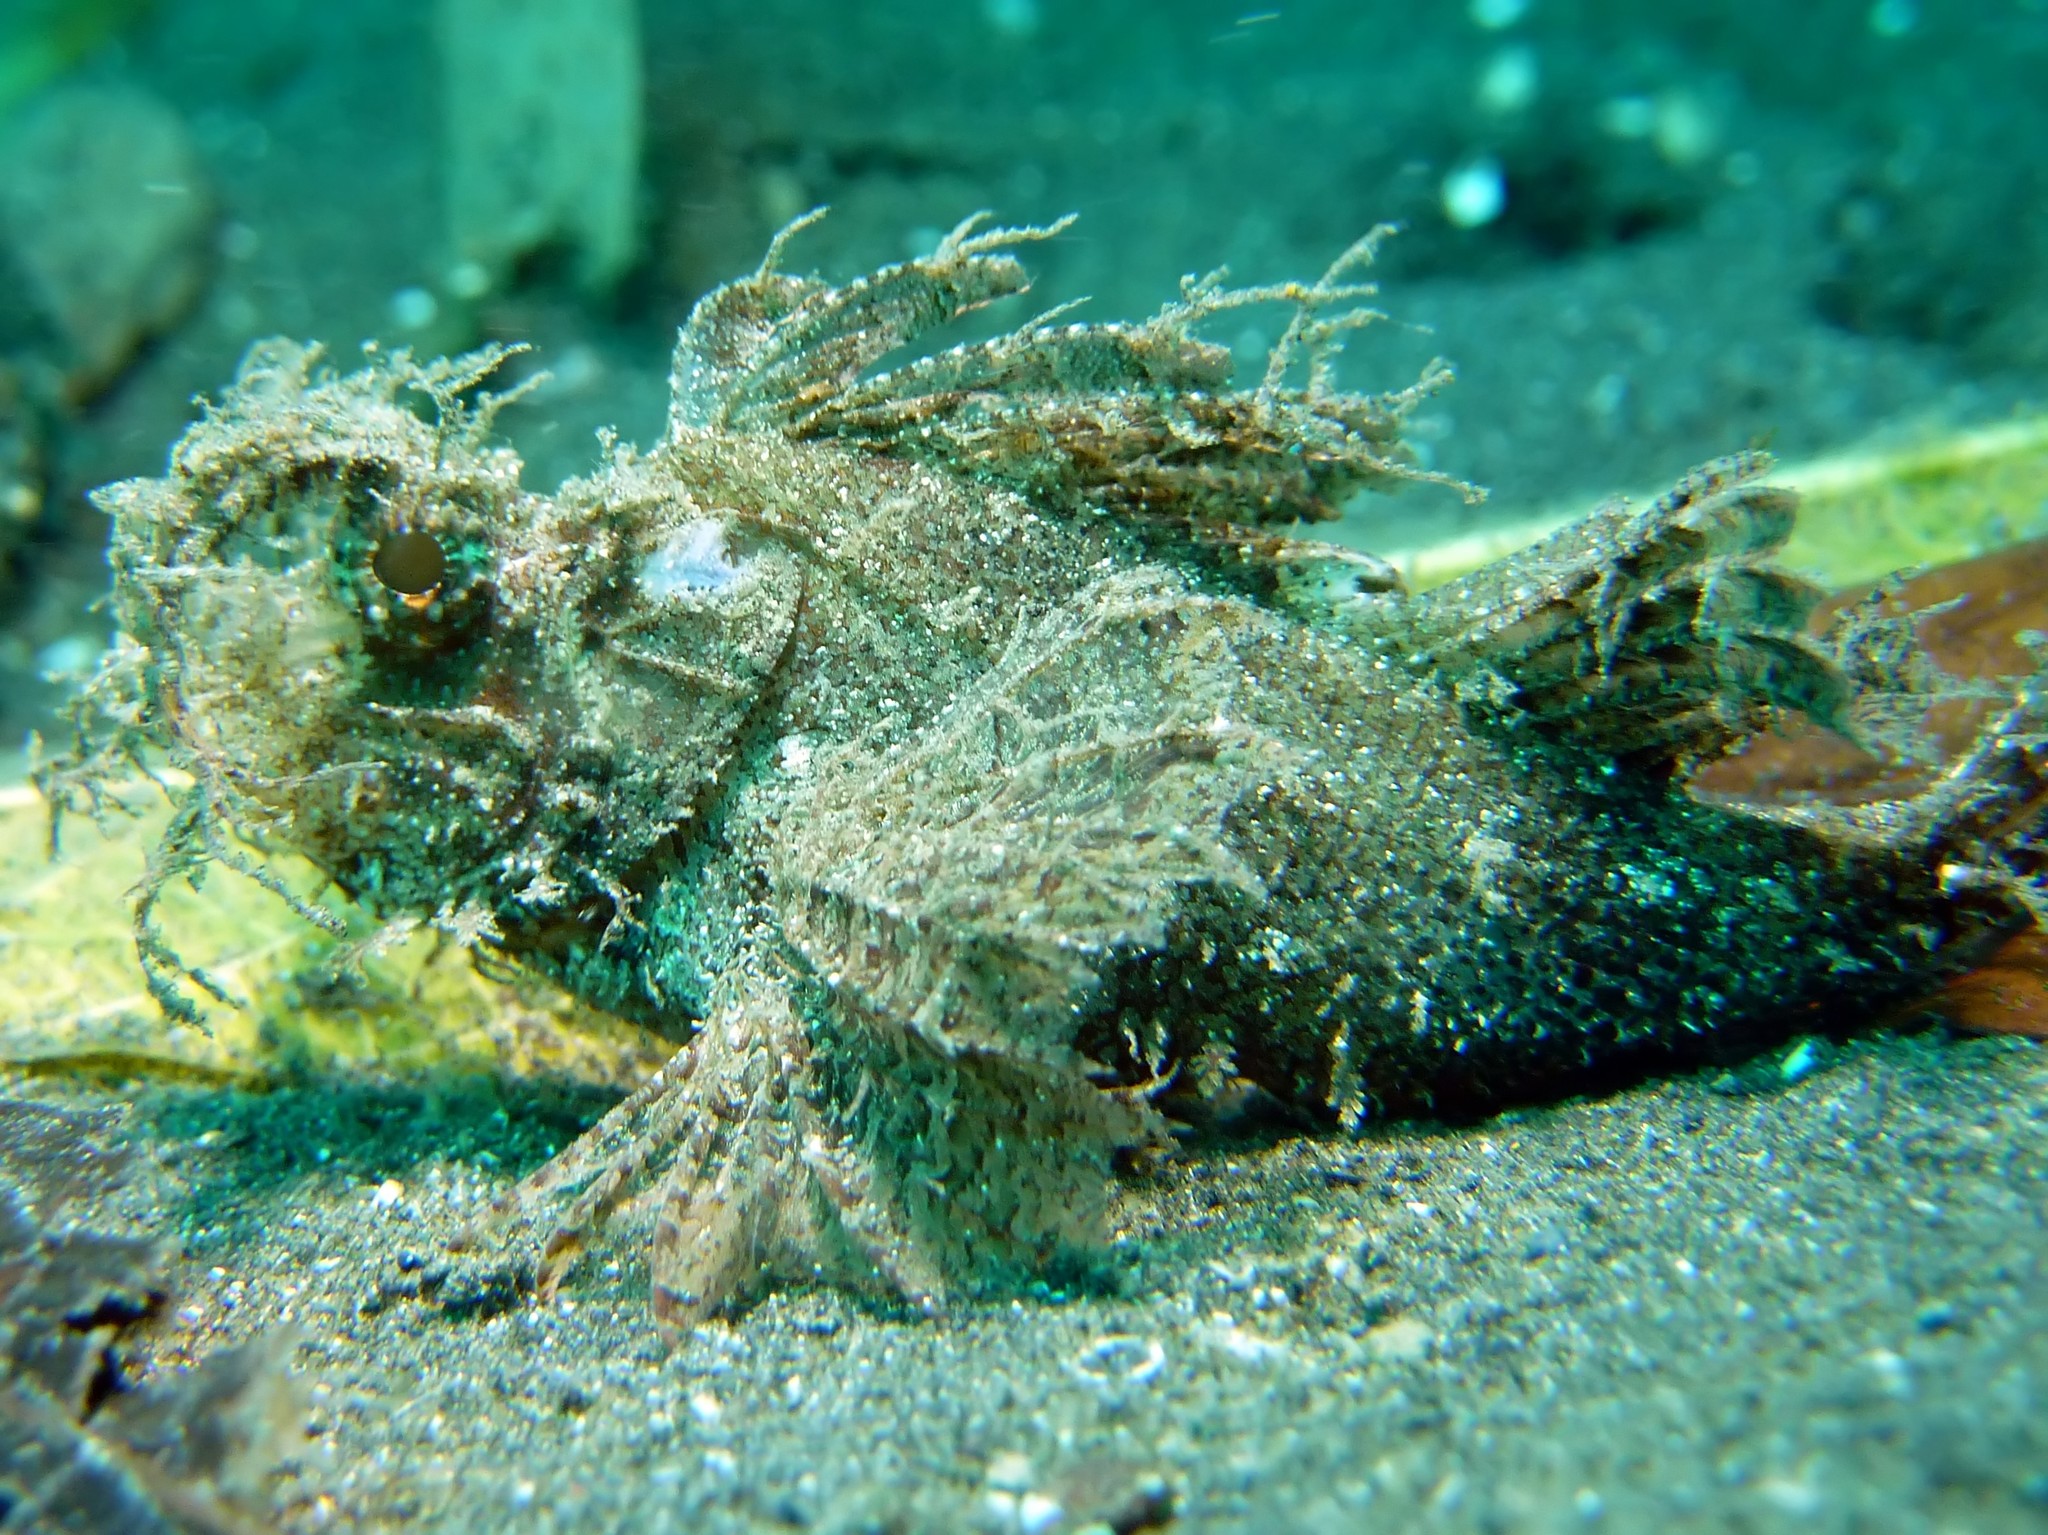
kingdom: Animalia
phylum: Chordata
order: Scorpaeniformes
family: Scorpaenidae
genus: Pteroidichthys
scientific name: Pteroidichthys amboinensis
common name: Ambon scorpionfish
